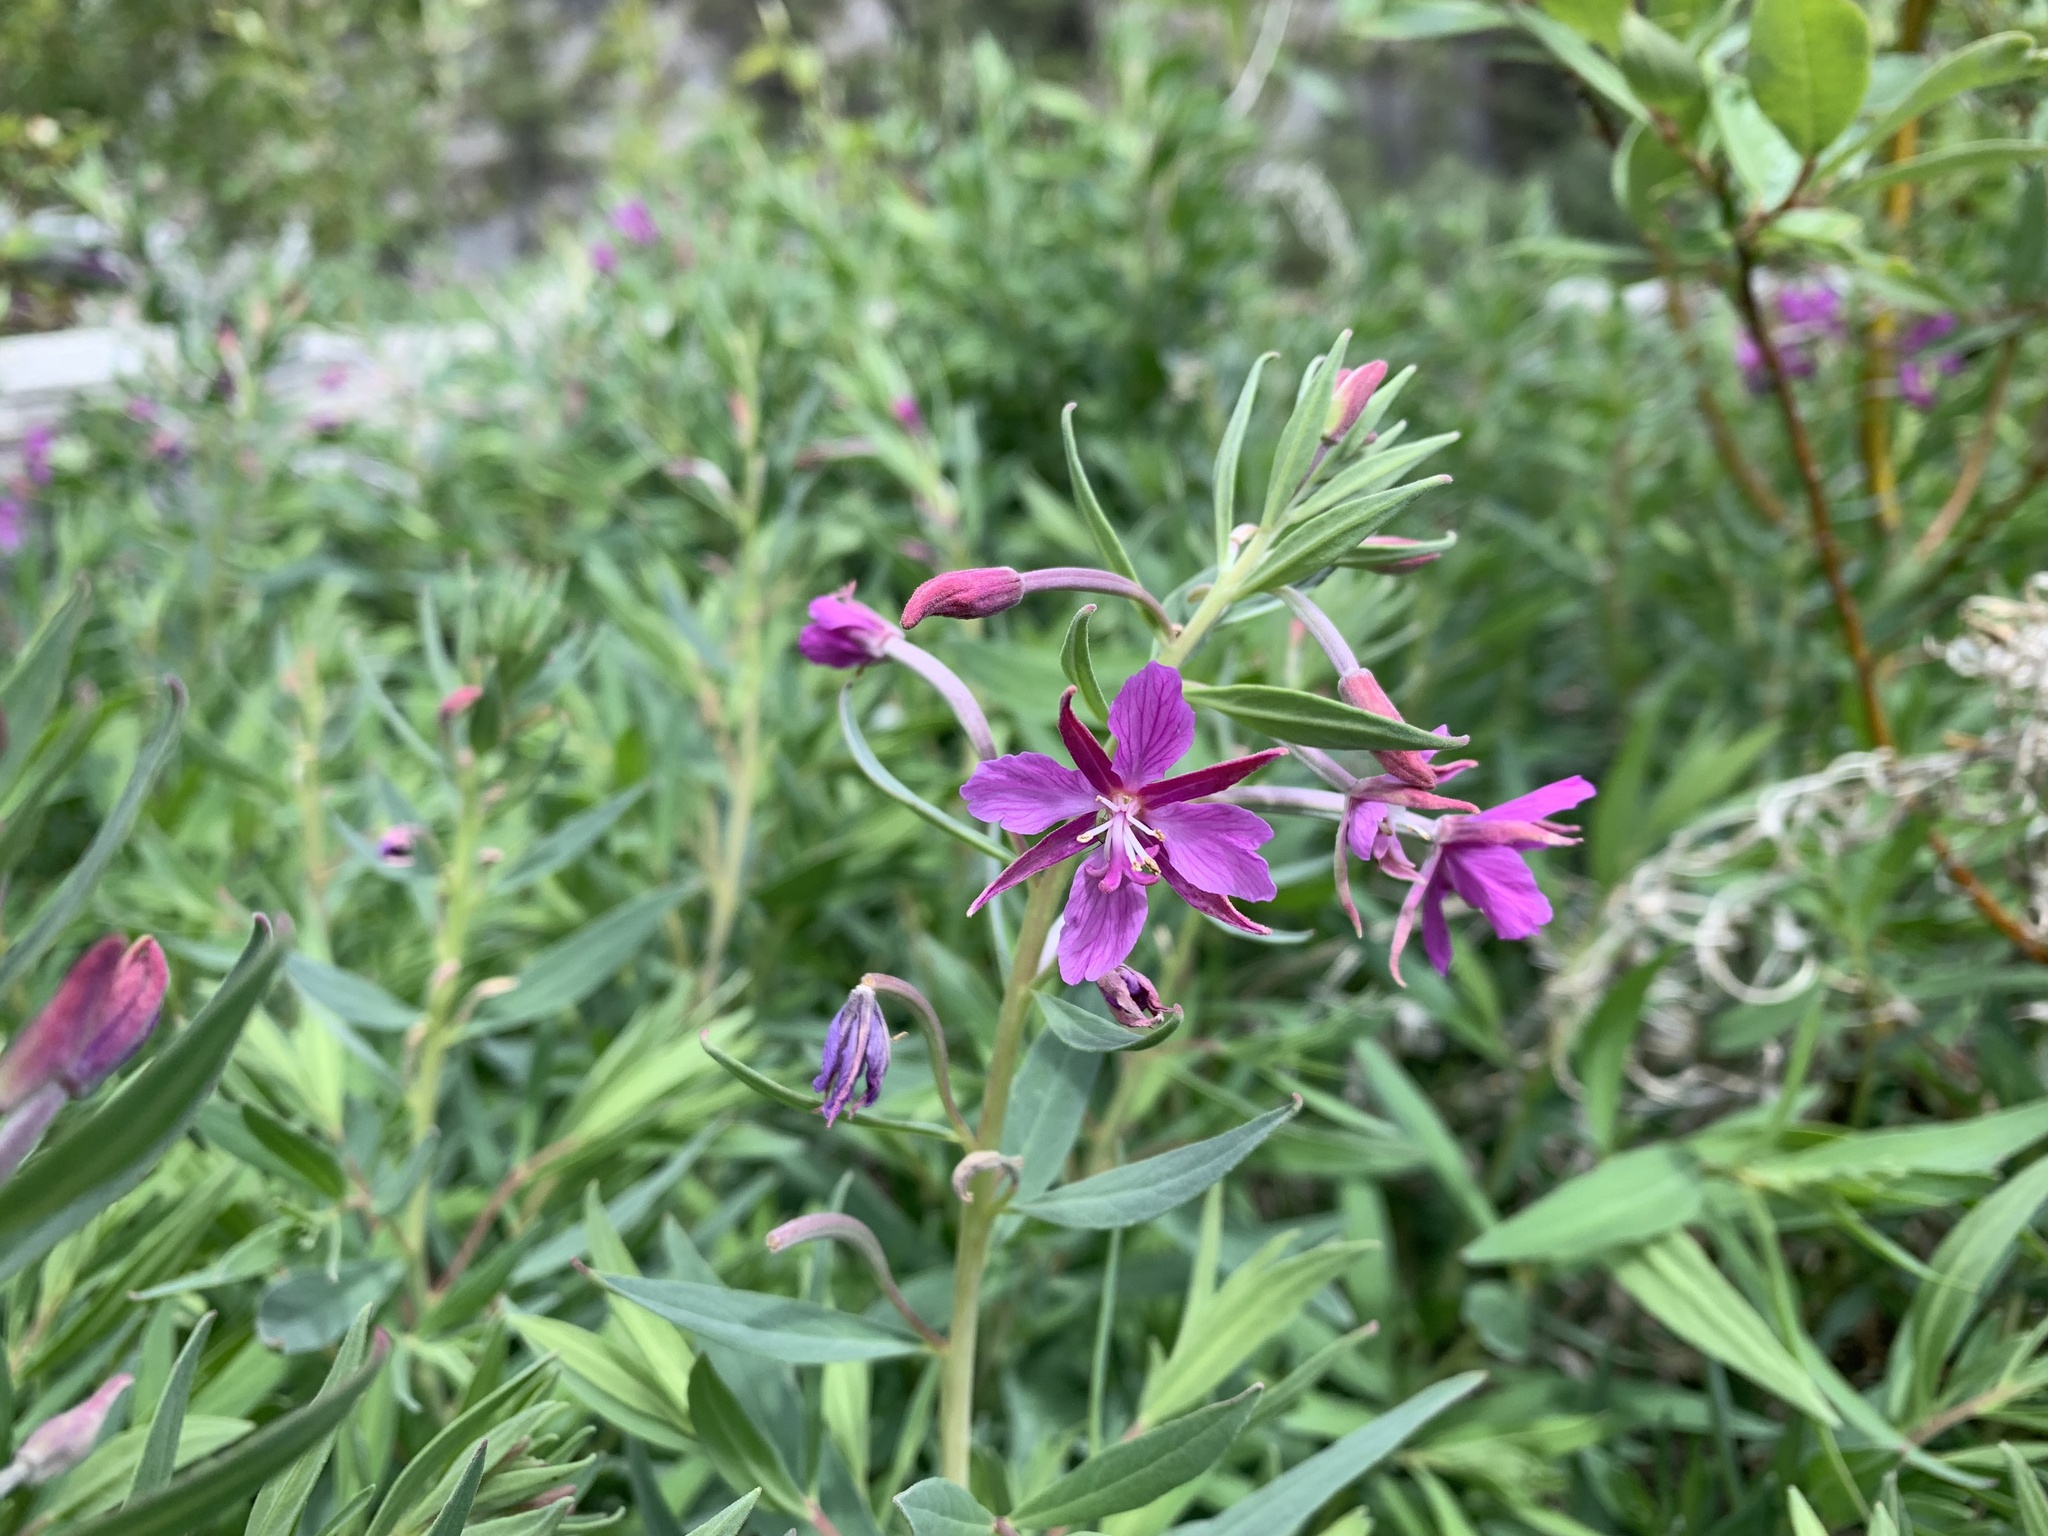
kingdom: Plantae
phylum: Tracheophyta
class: Magnoliopsida
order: Myrtales
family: Onagraceae
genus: Chamaenerion
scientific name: Chamaenerion latifolium
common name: Dwarf fireweed
